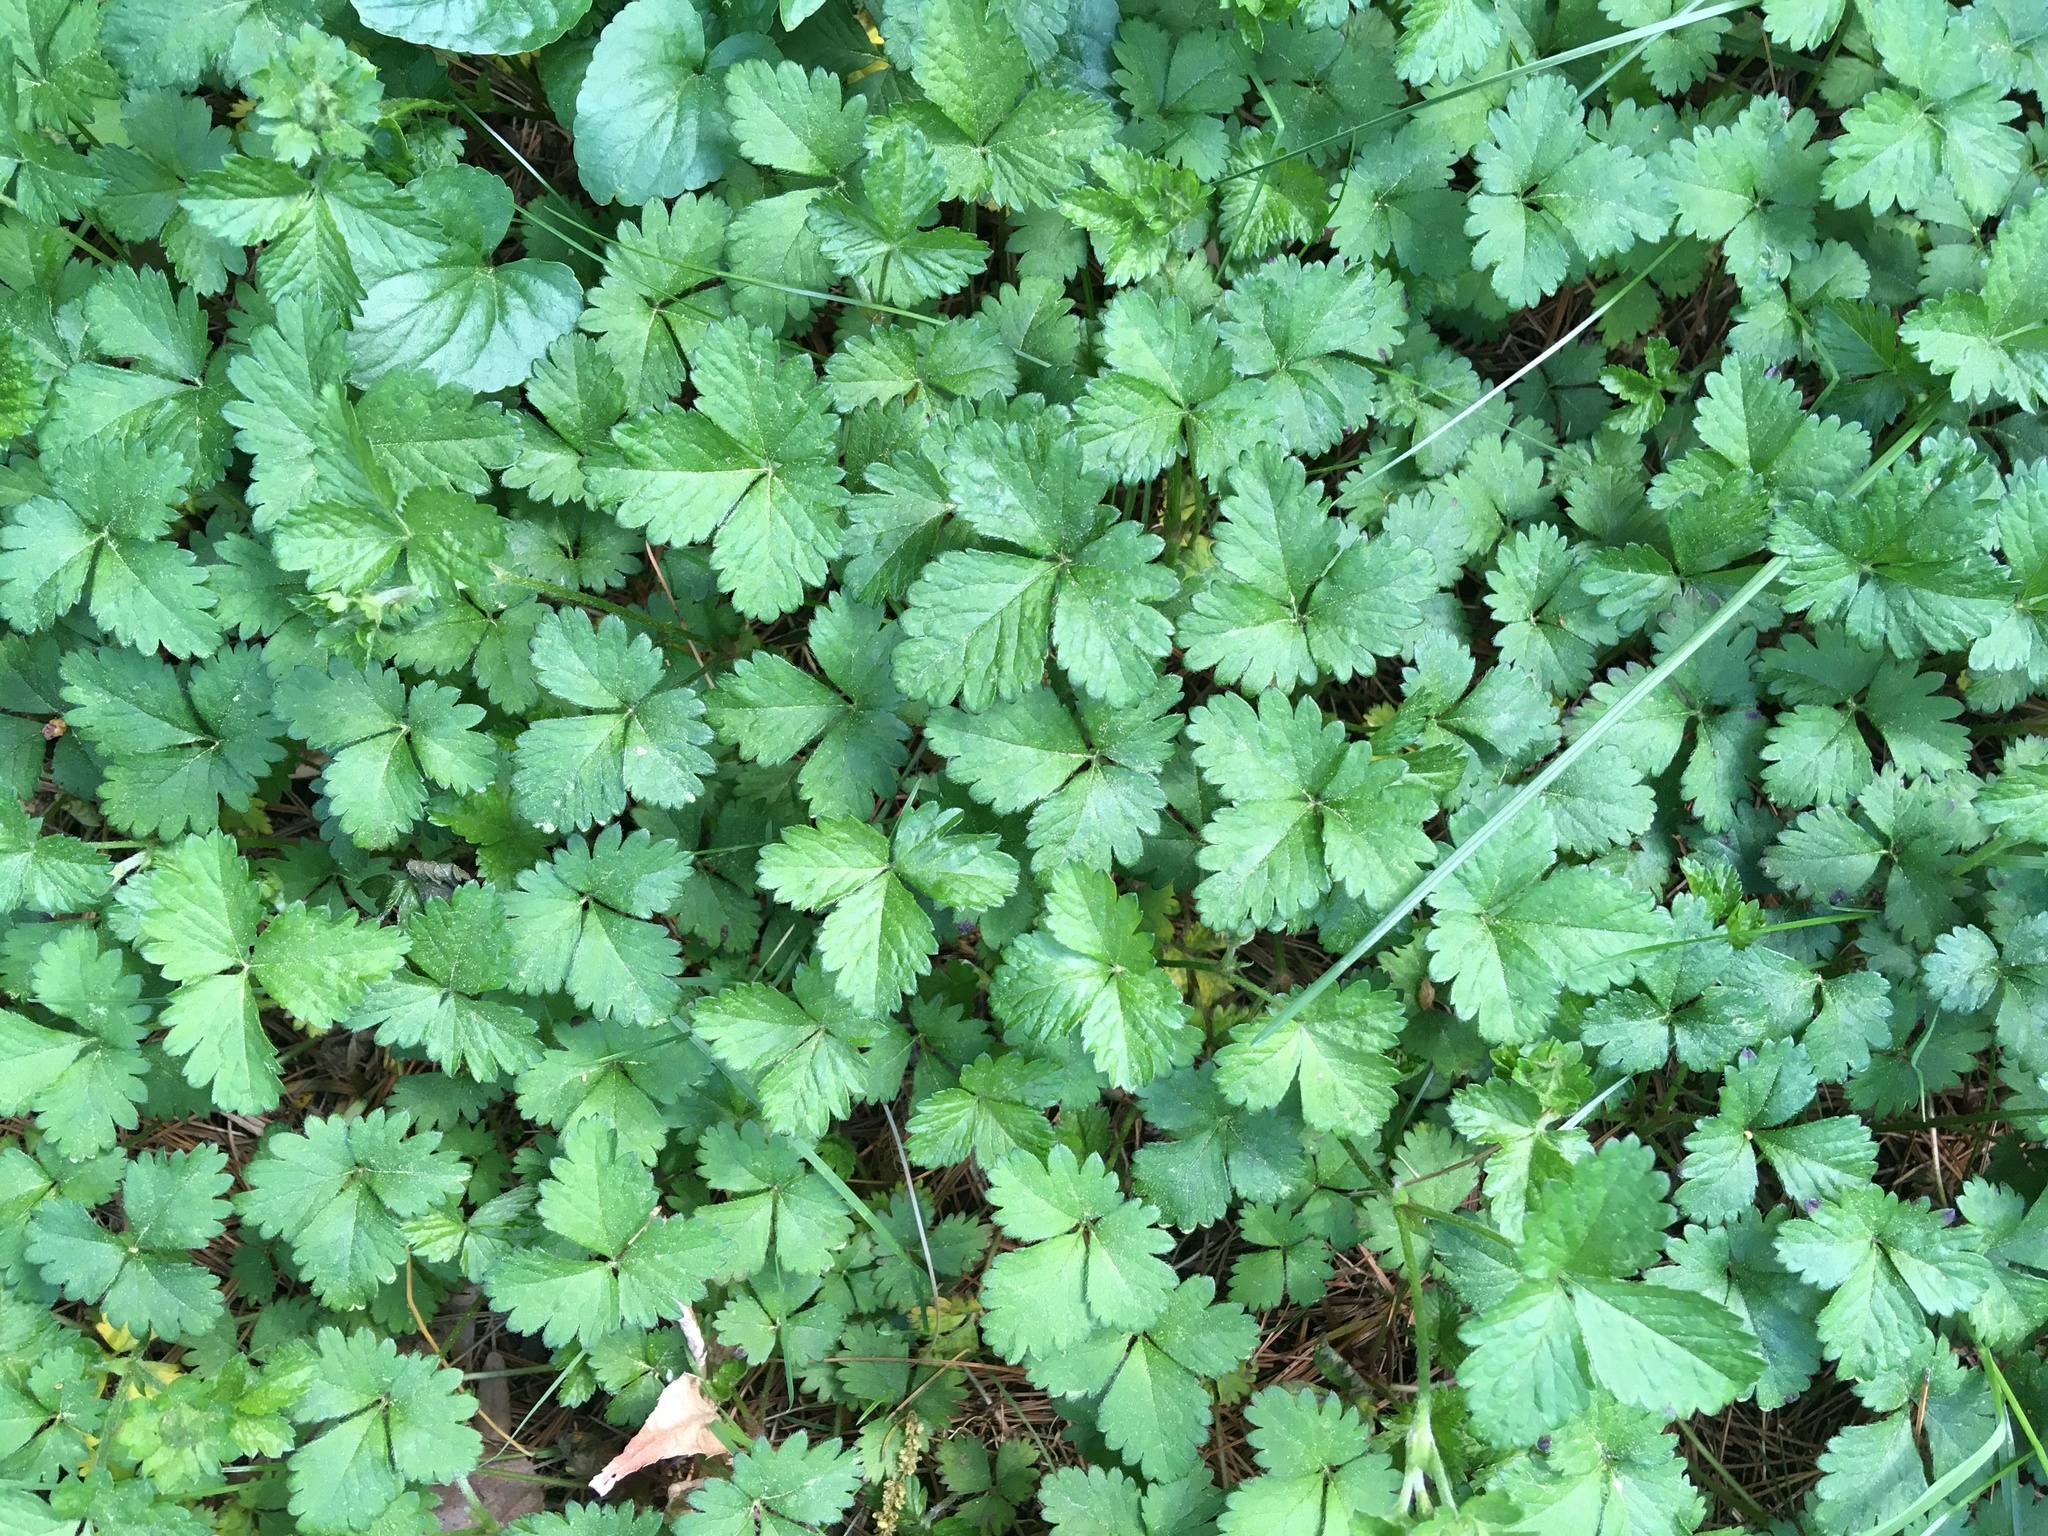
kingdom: Plantae
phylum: Tracheophyta
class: Magnoliopsida
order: Rosales
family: Rosaceae
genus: Potentilla
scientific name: Potentilla indica
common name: Yellow-flowered strawberry
